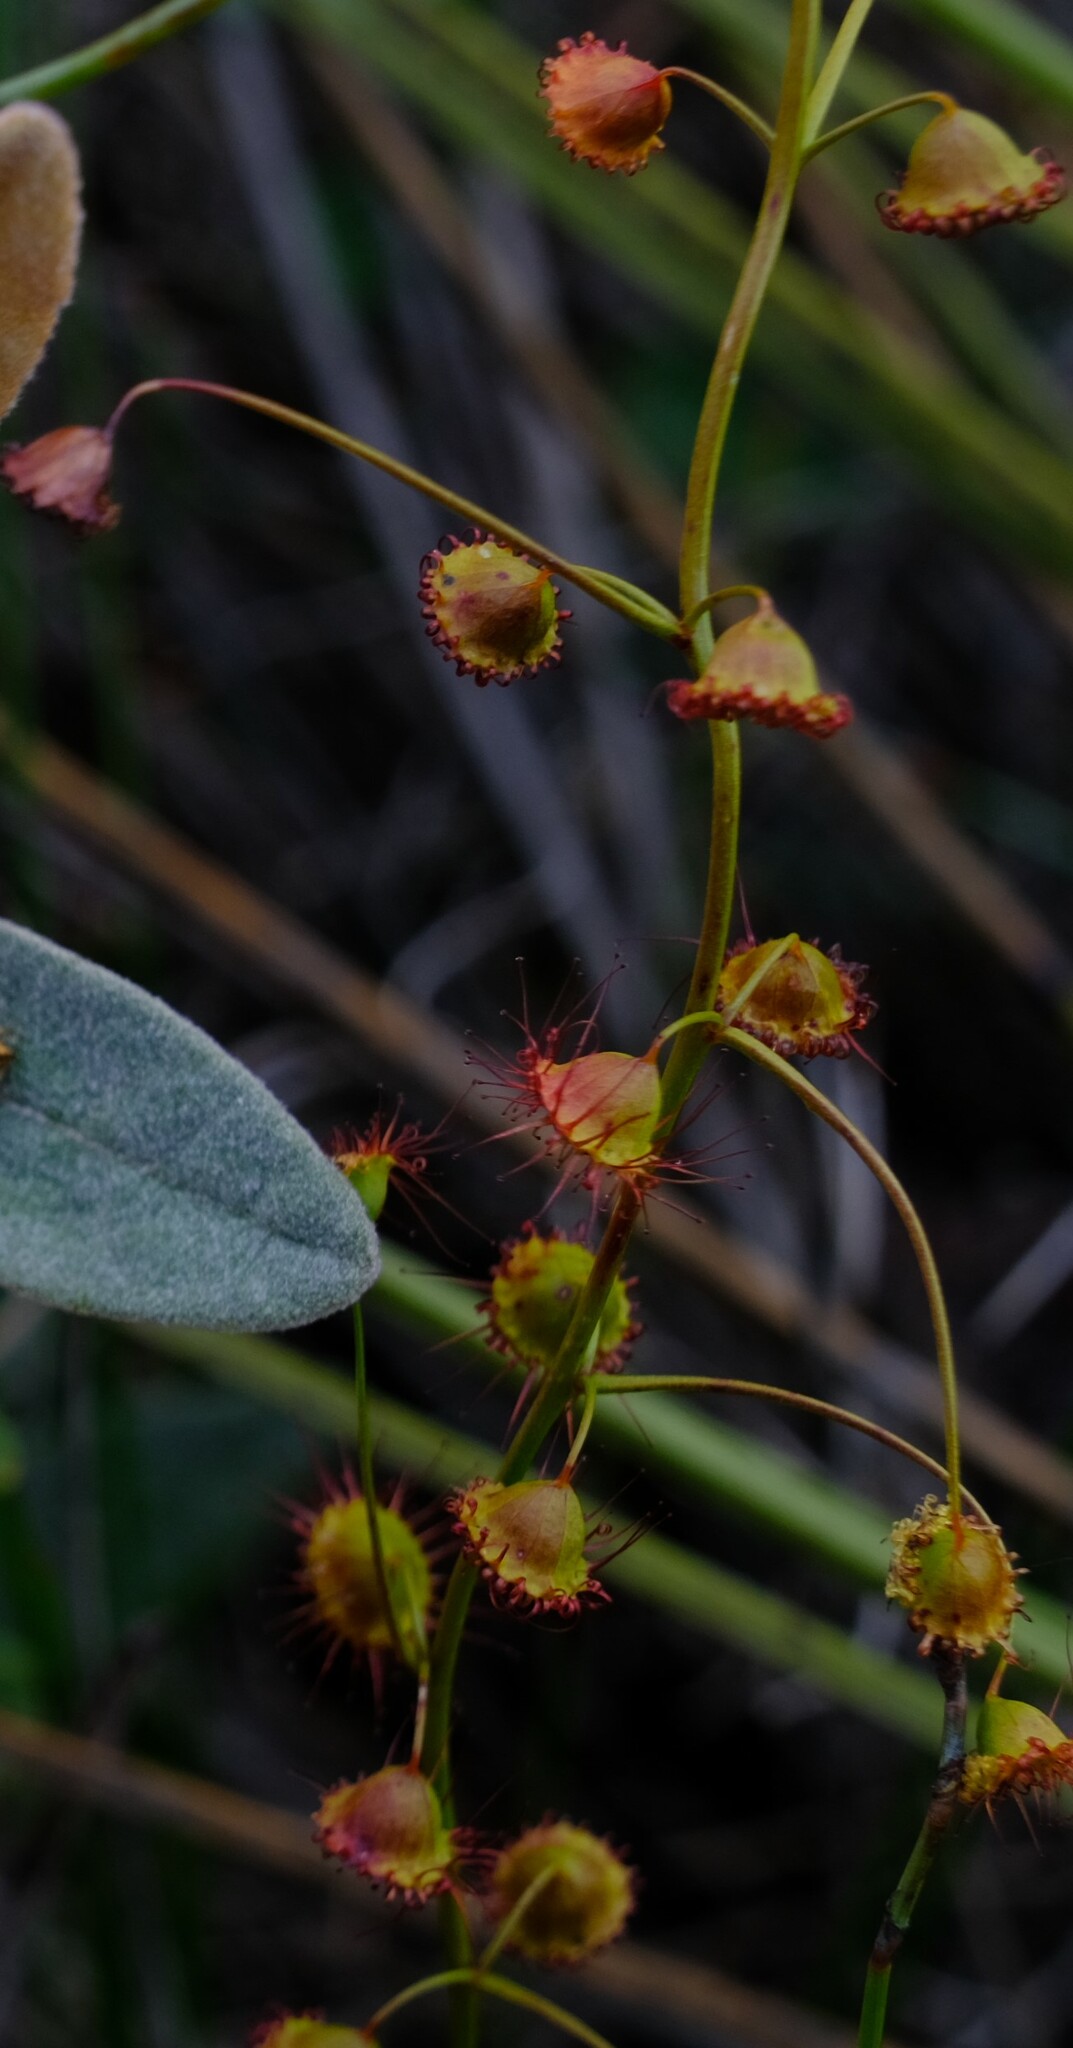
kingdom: Plantae
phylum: Tracheophyta
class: Magnoliopsida
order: Caryophyllales
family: Droseraceae
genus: Drosera
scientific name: Drosera macrantha
